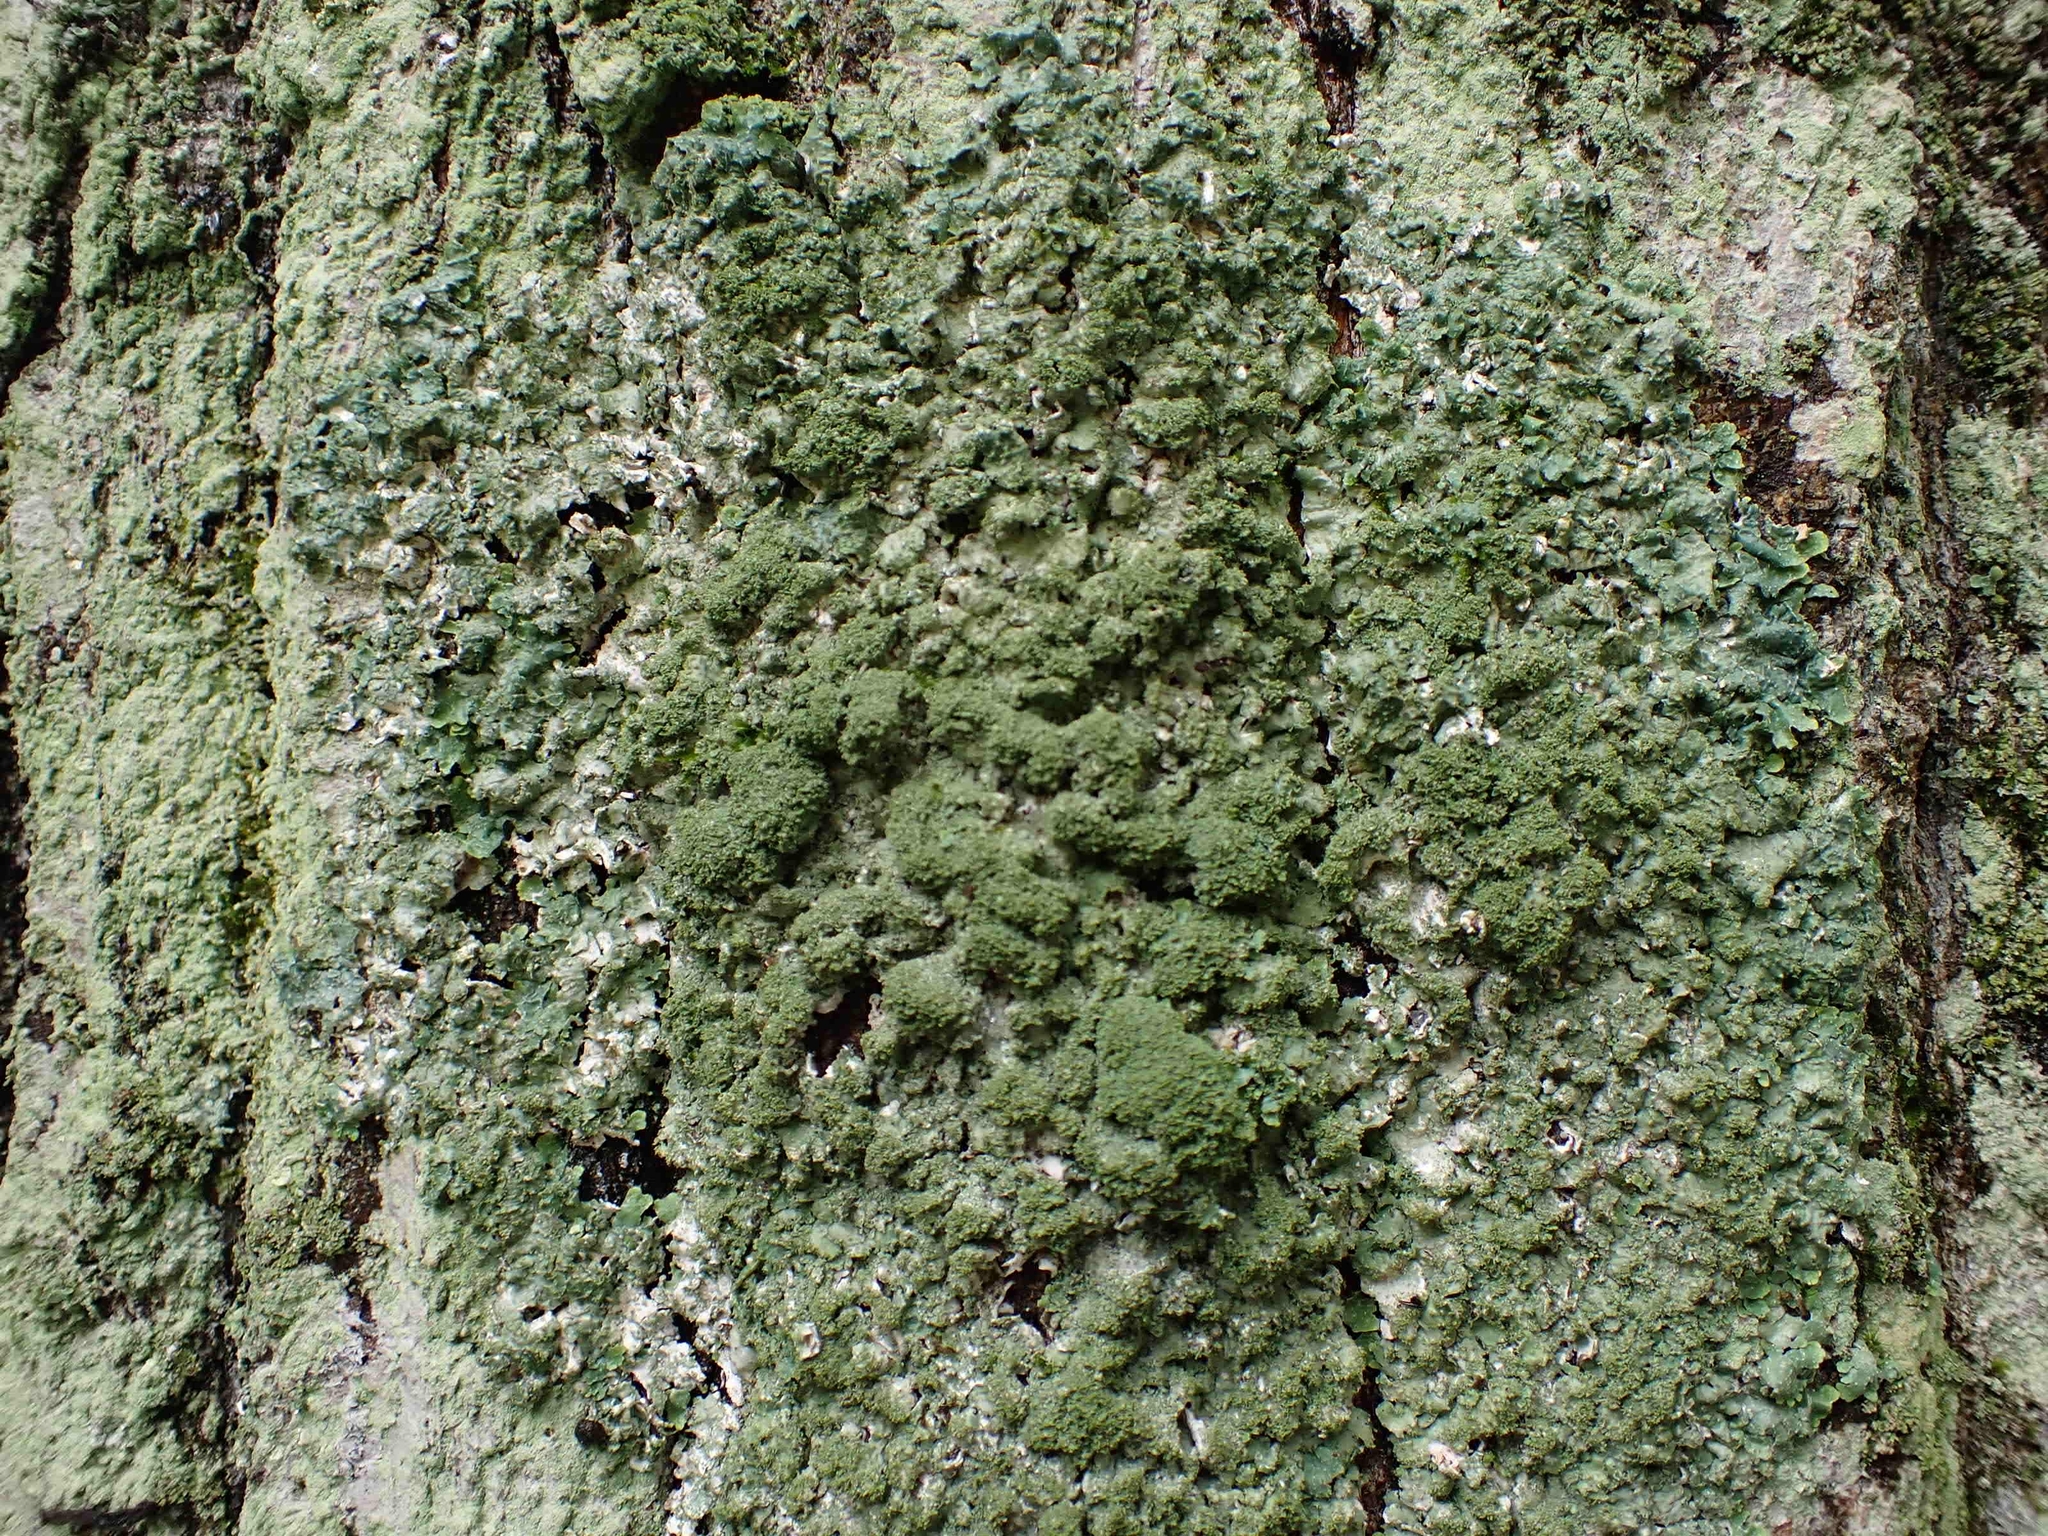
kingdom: Fungi
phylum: Ascomycota
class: Lecanoromycetes
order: Lecanorales
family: Parmeliaceae
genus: Punctelia
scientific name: Punctelia rudecta
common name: Rough speckled shield lichen
